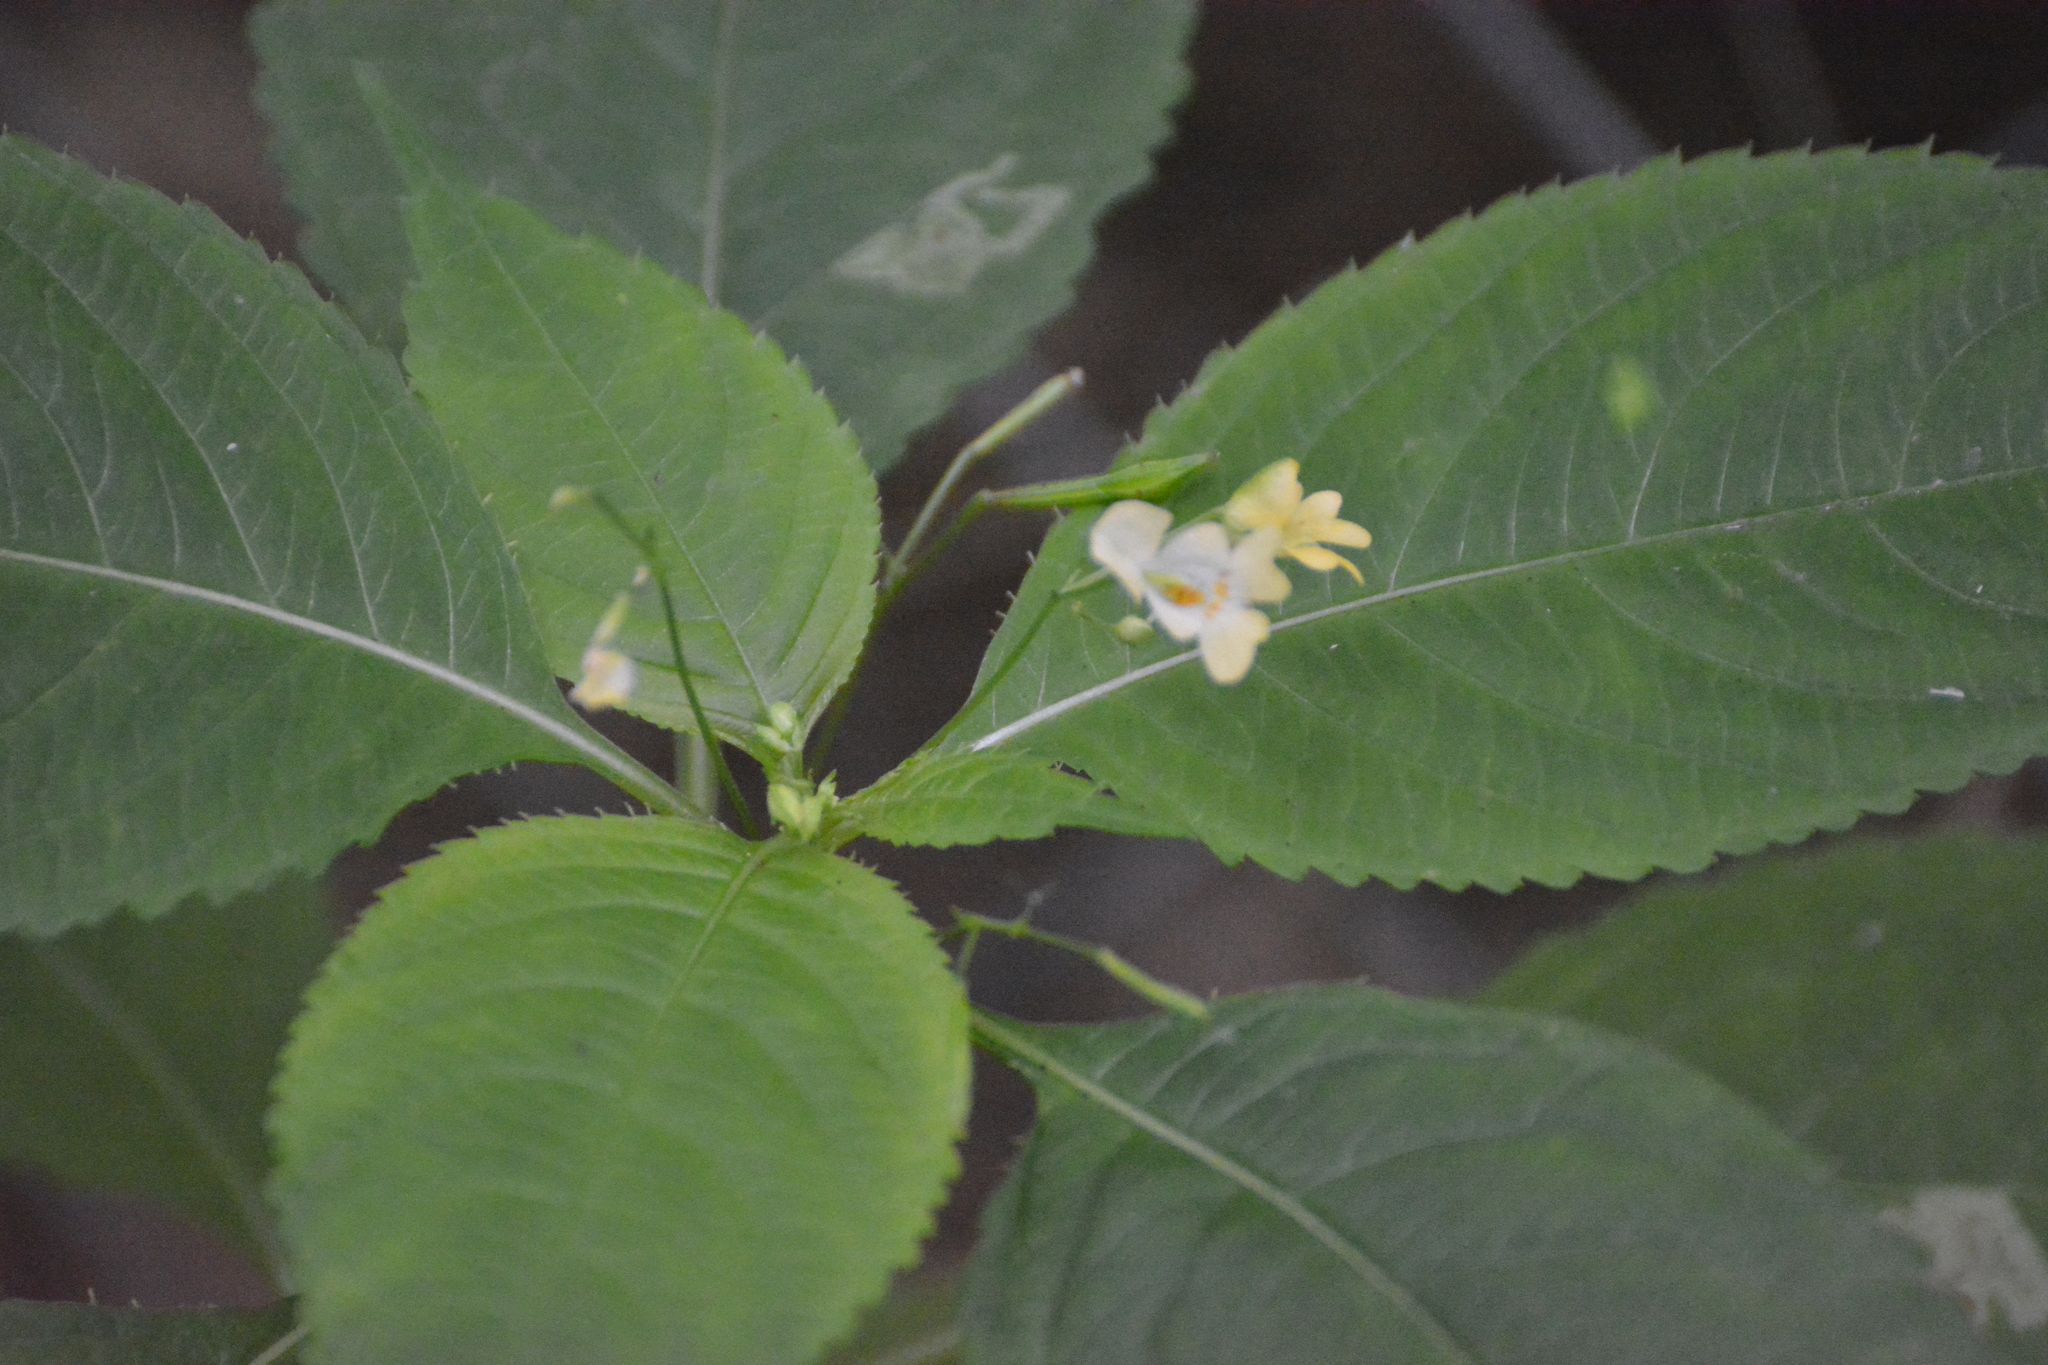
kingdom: Plantae
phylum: Tracheophyta
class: Magnoliopsida
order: Ericales
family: Balsaminaceae
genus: Impatiens
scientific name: Impatiens parviflora
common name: Small balsam
